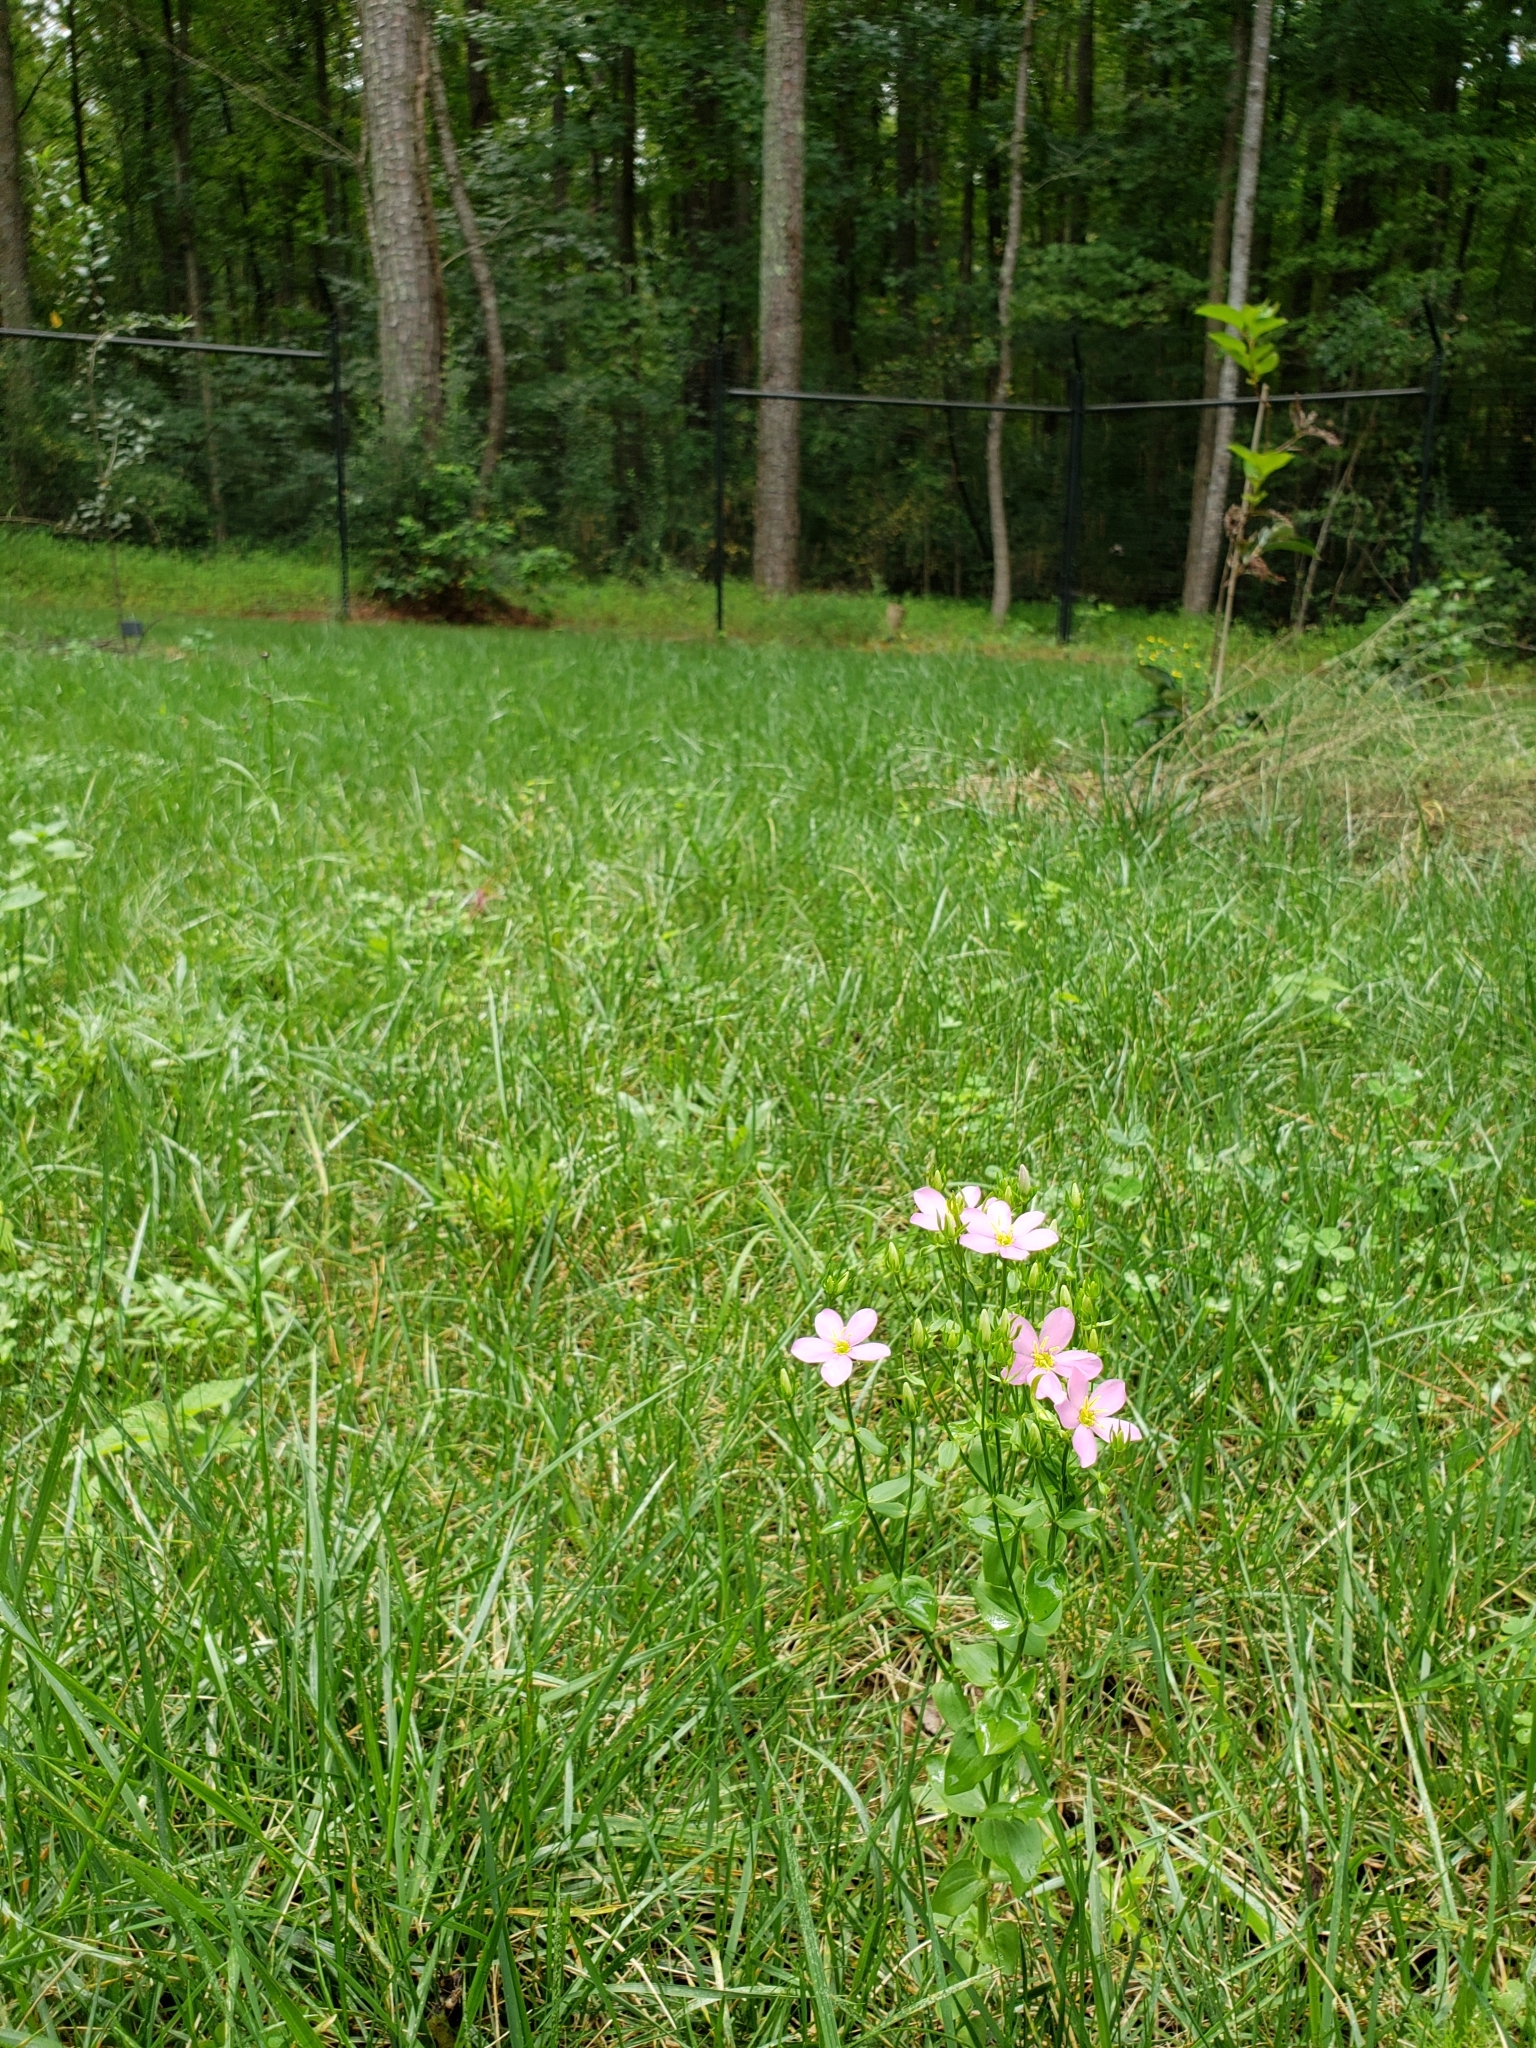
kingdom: Plantae
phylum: Tracheophyta
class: Magnoliopsida
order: Gentianales
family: Gentianaceae
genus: Sabatia
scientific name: Sabatia angularis
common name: Rose-pink
